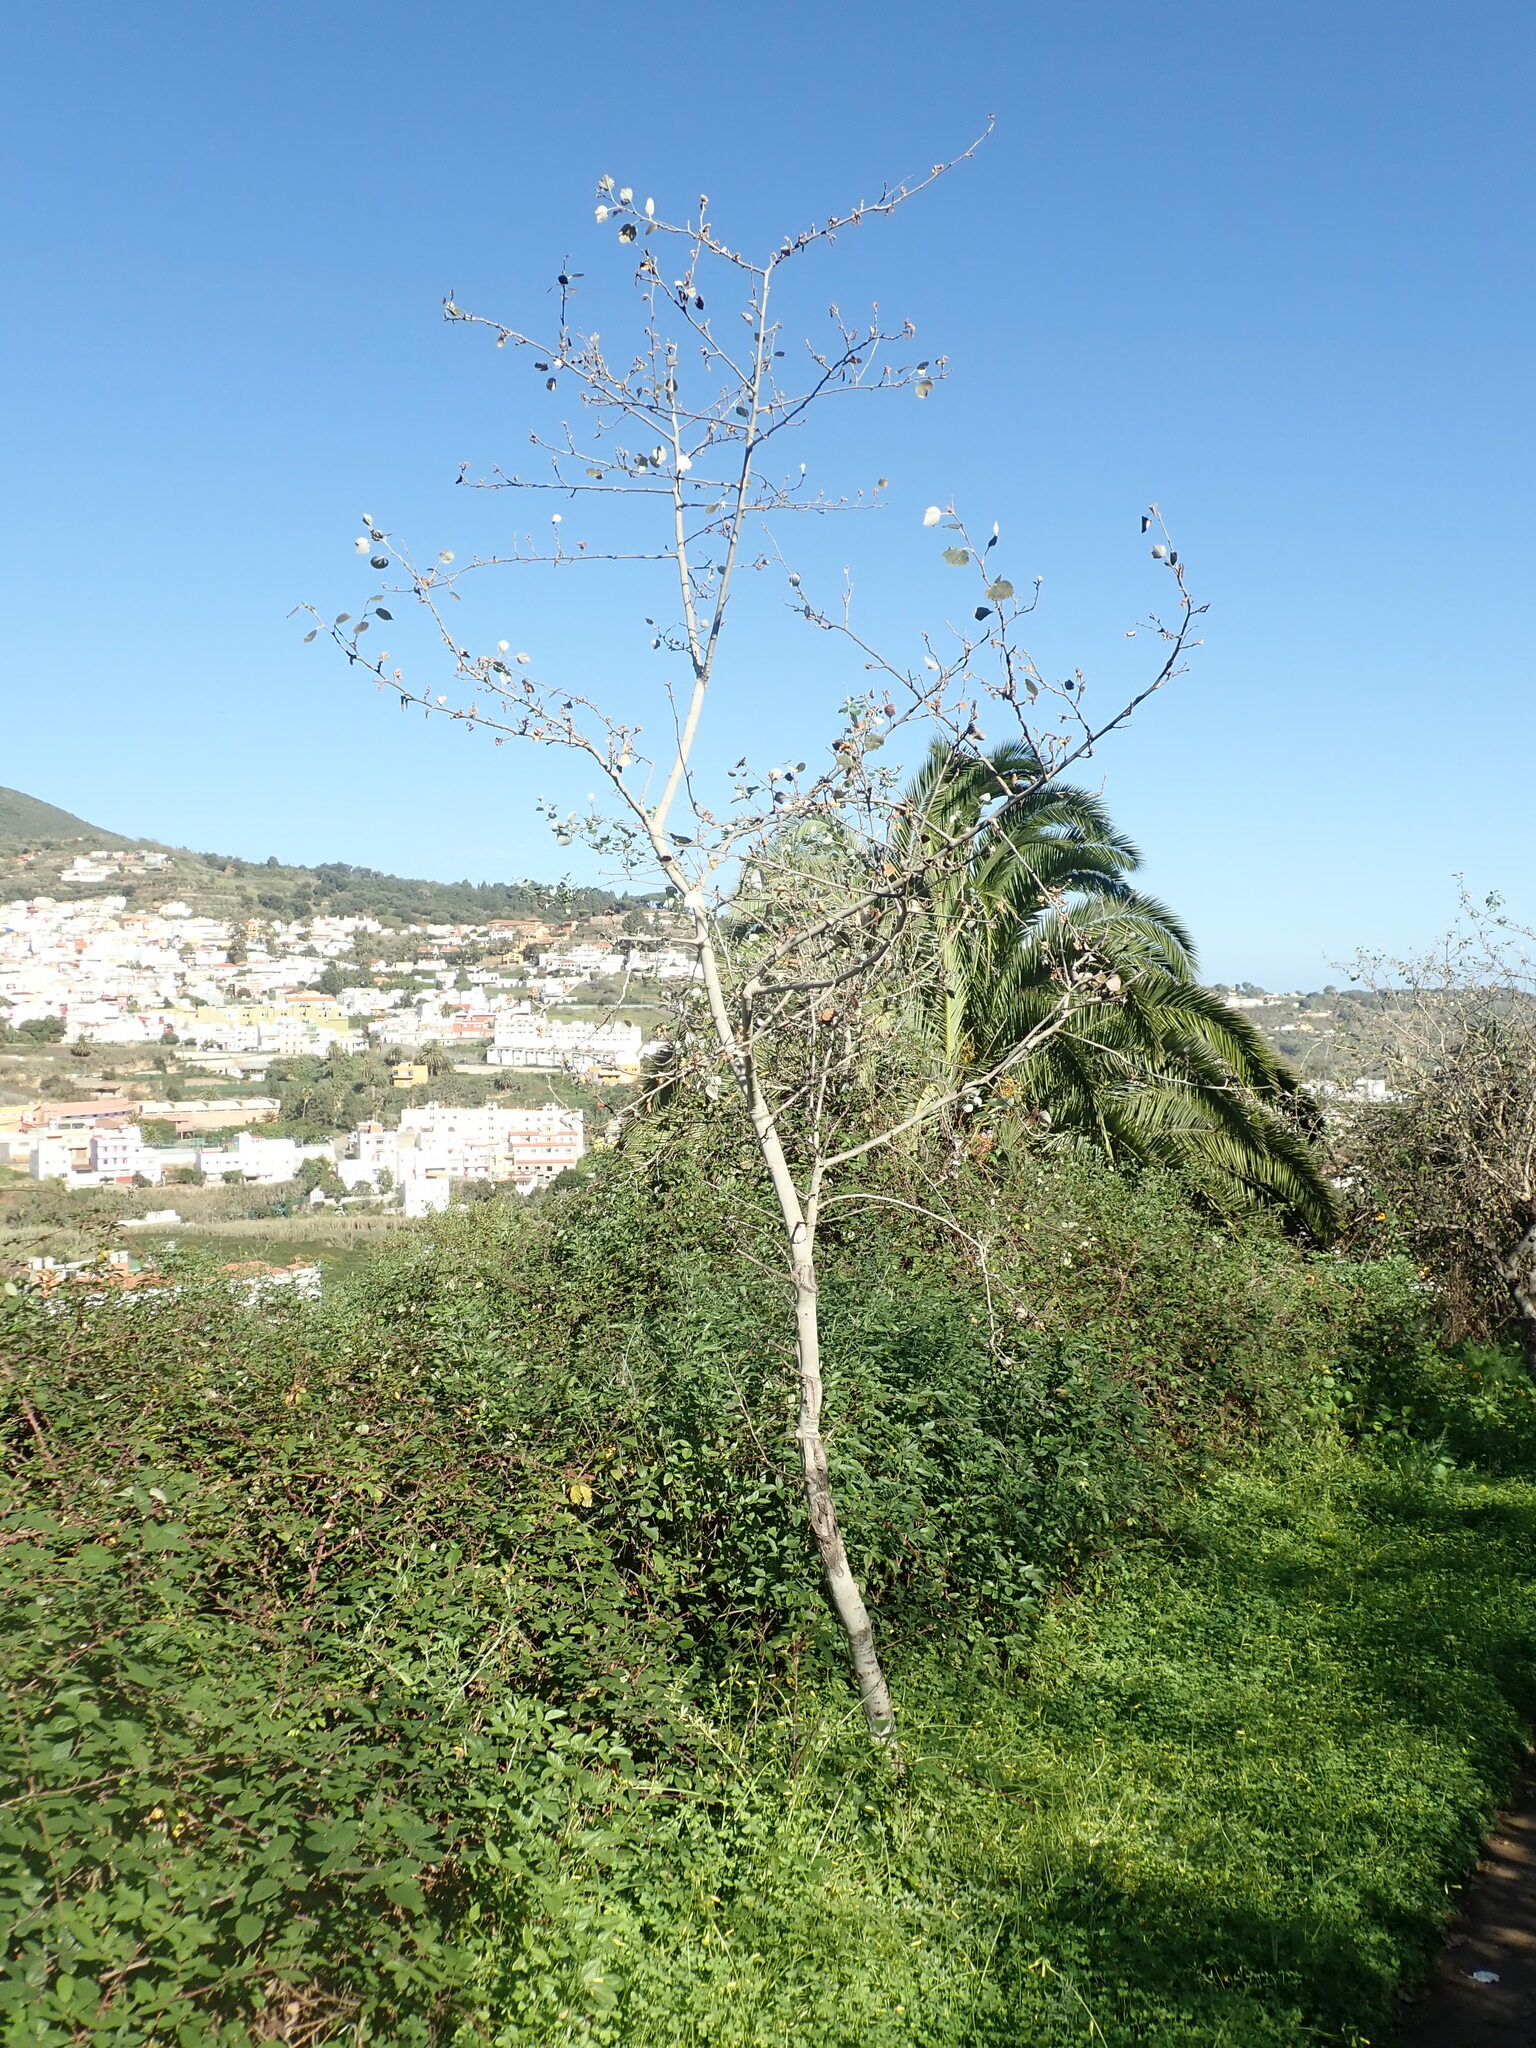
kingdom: Plantae
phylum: Tracheophyta
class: Magnoliopsida
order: Malpighiales
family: Salicaceae
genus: Populus
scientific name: Populus alba
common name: White poplar
